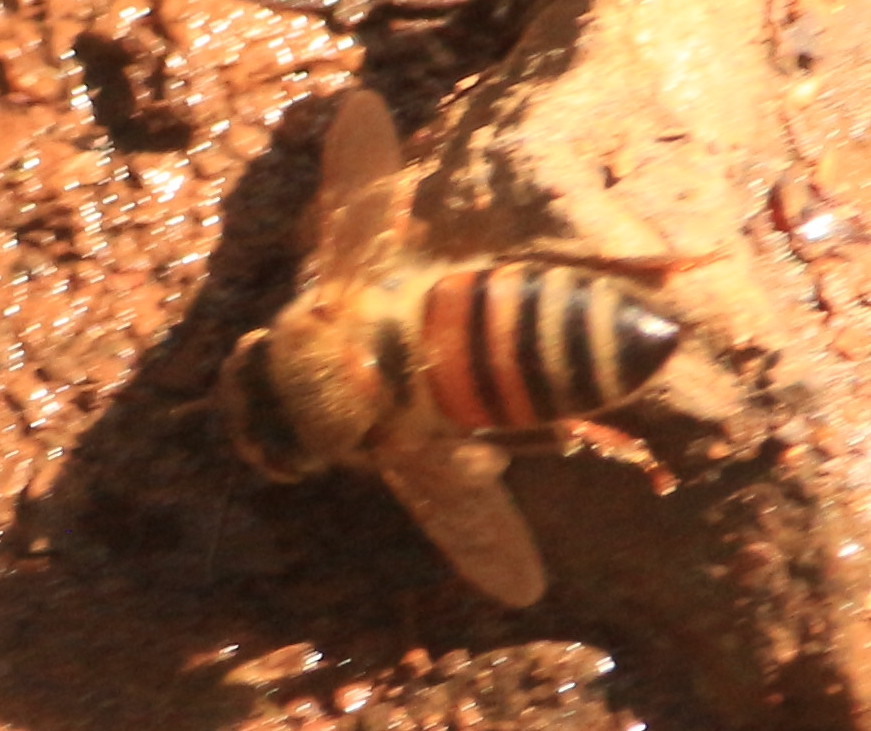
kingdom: Animalia
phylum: Arthropoda
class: Insecta
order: Hymenoptera
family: Apidae
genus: Apis
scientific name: Apis mellifera
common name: Honey bee
